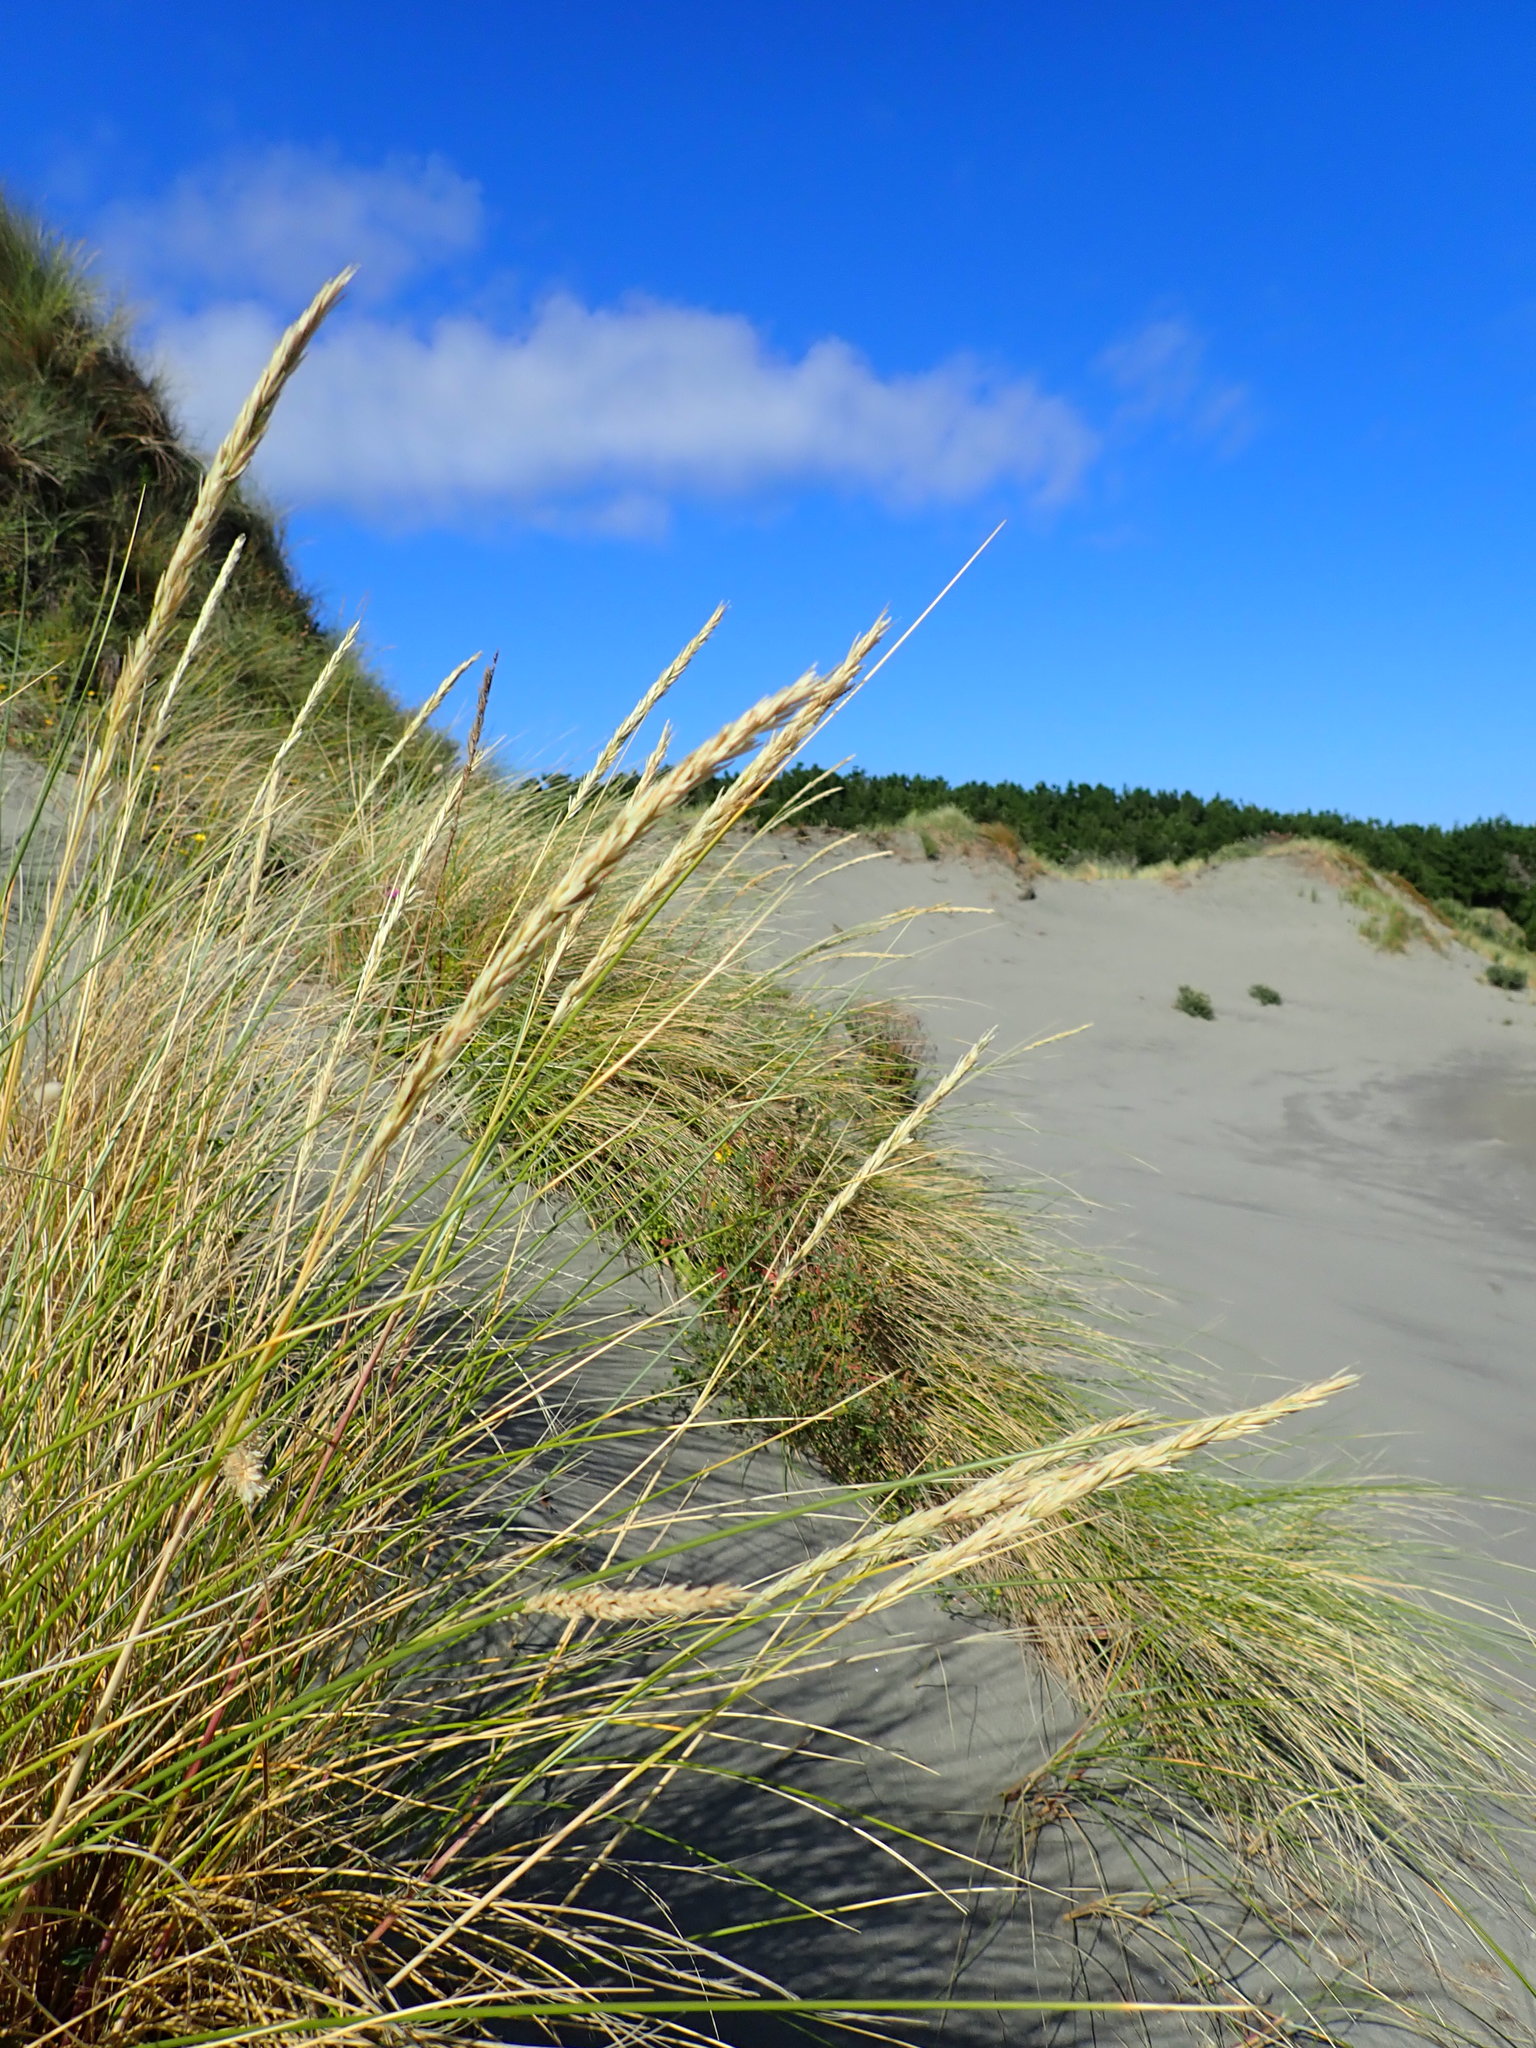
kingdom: Plantae
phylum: Tracheophyta
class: Liliopsida
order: Poales
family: Poaceae
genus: Calamagrostis
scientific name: Calamagrostis arenaria
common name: European beachgrass
